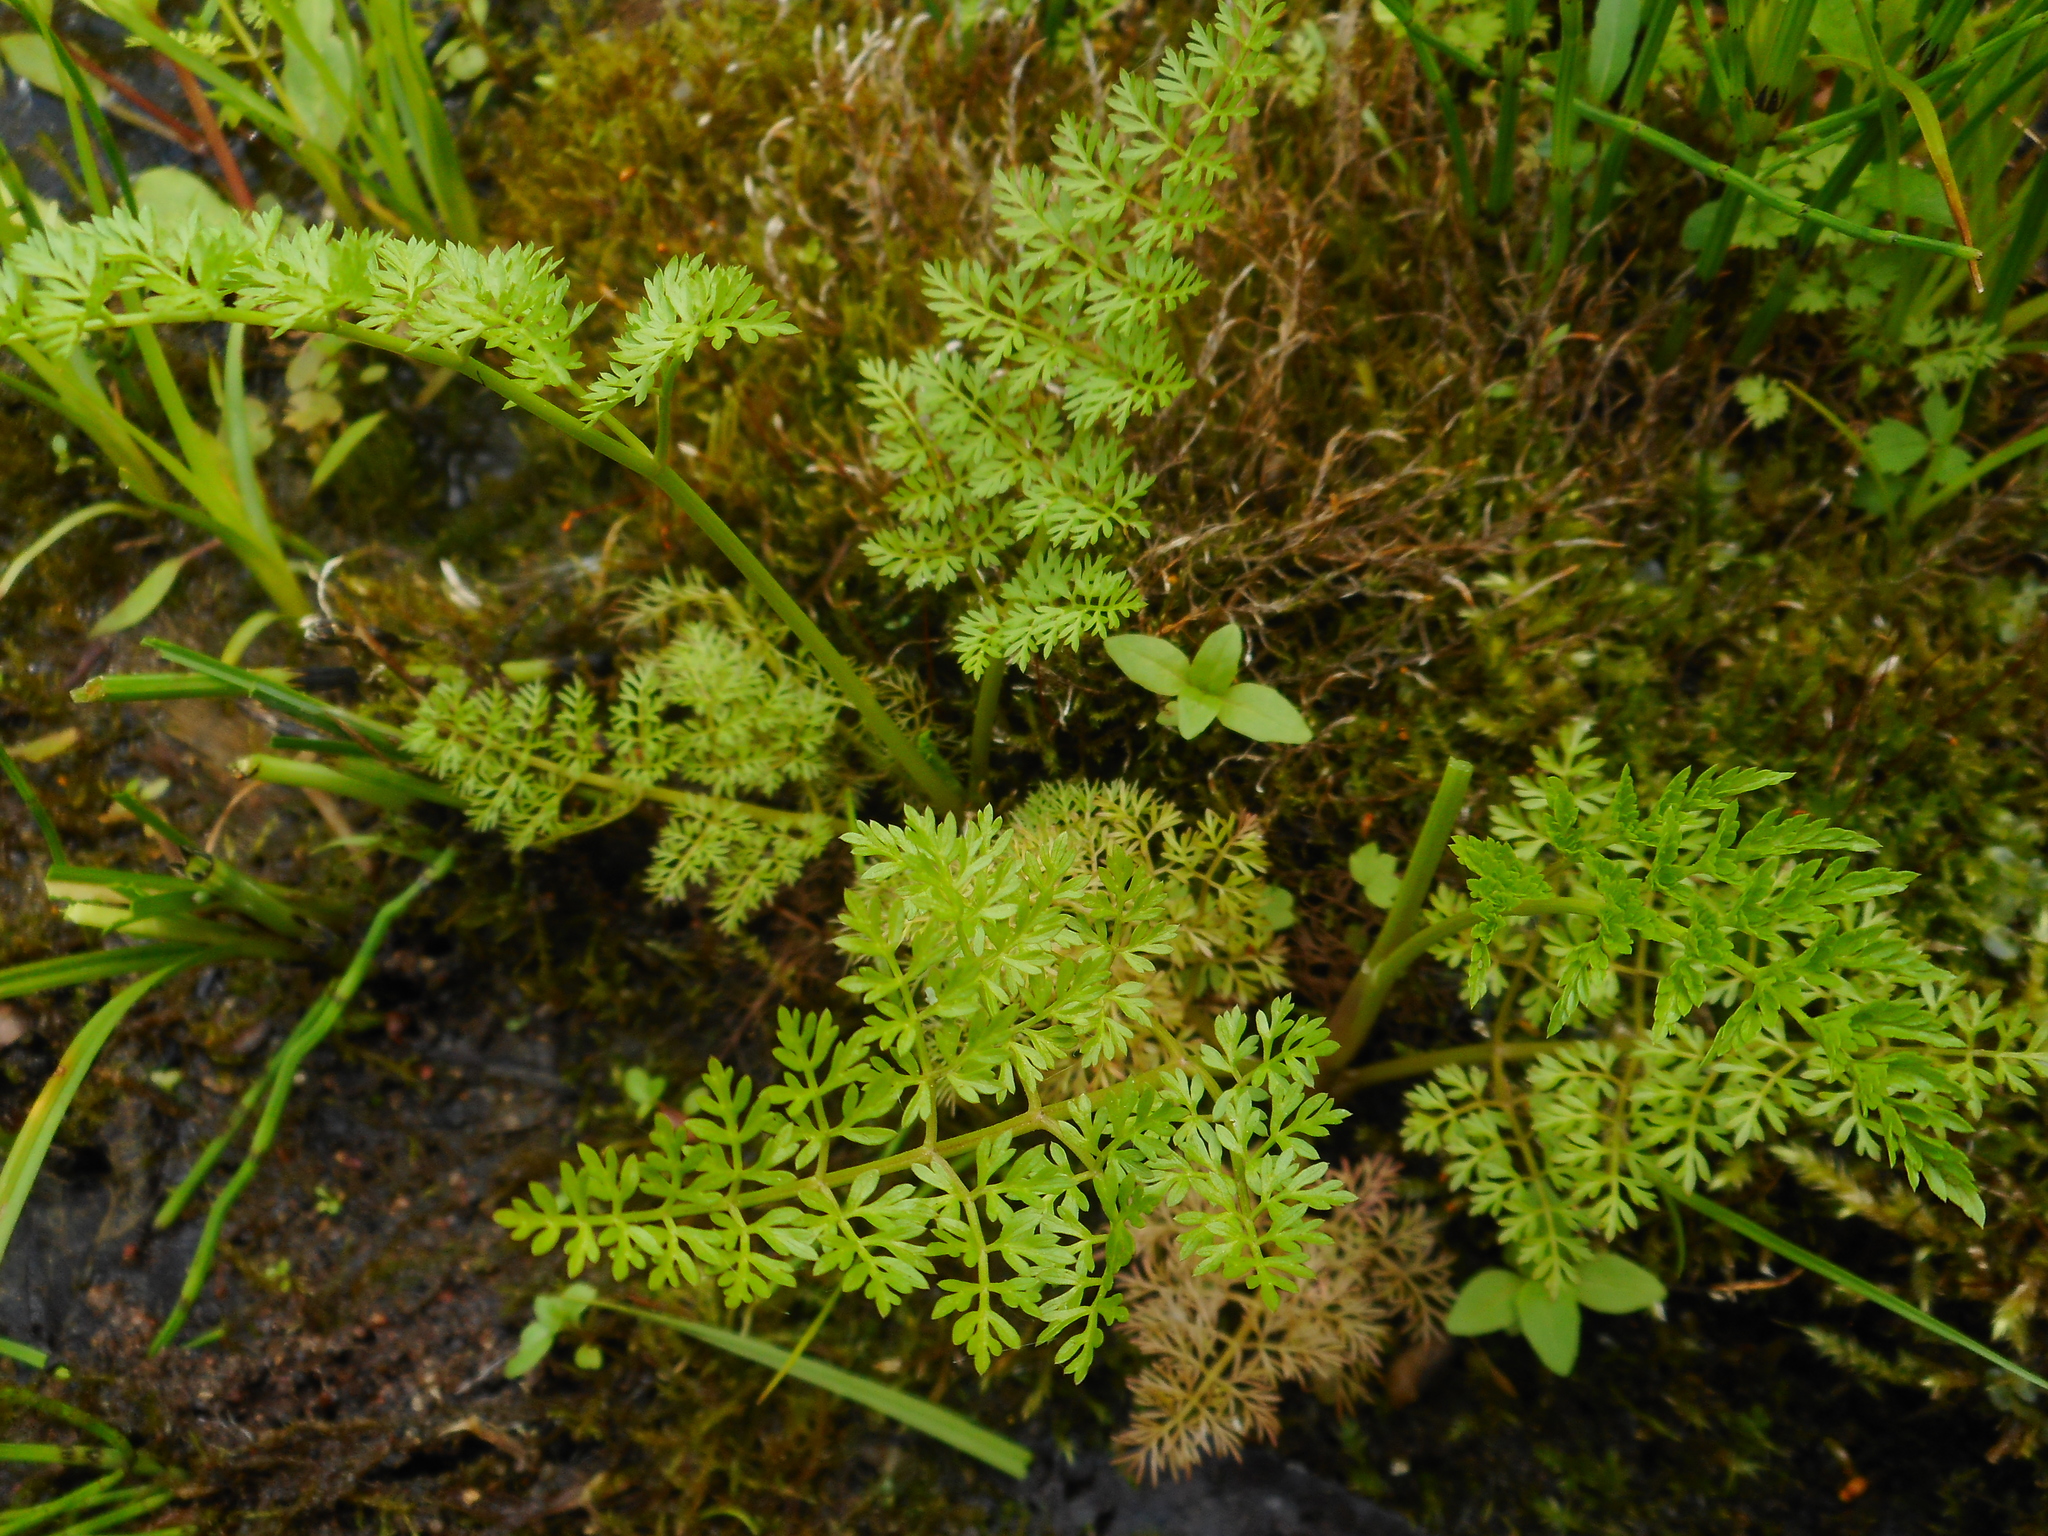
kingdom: Plantae
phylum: Tracheophyta
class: Magnoliopsida
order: Apiales
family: Apiaceae
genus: Oenanthe
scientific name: Oenanthe aquatica
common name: Fine-leaved water-dropwort
